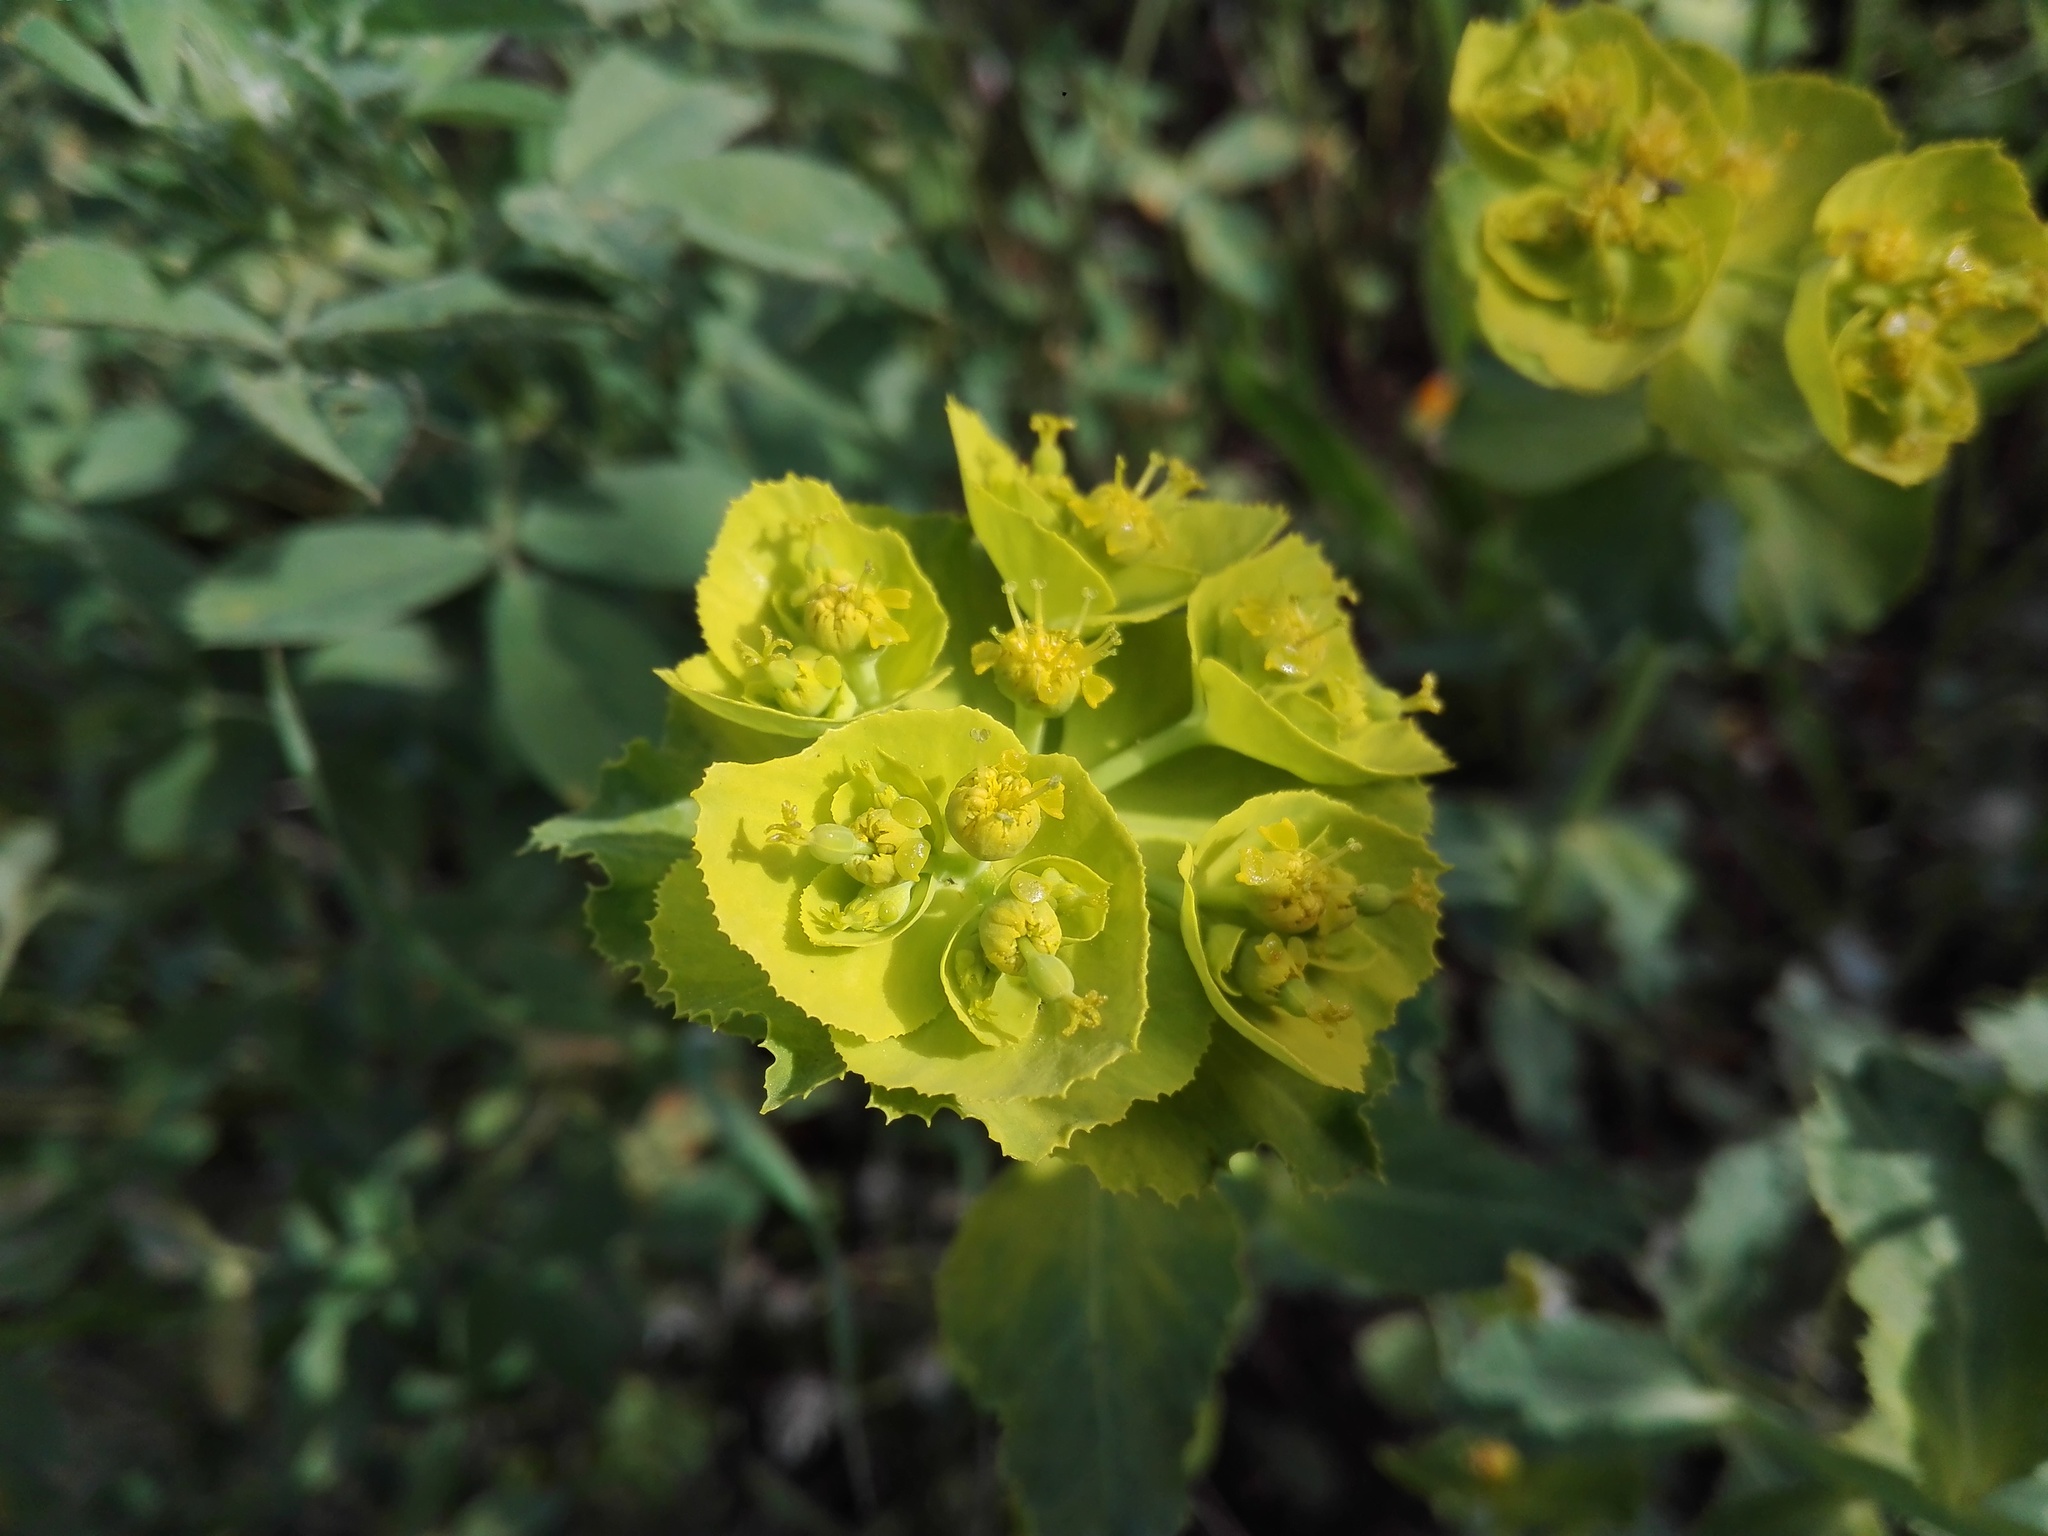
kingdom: Plantae
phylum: Tracheophyta
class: Magnoliopsida
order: Malpighiales
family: Euphorbiaceae
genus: Euphorbia
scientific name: Euphorbia serrata
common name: Serrate spurge
